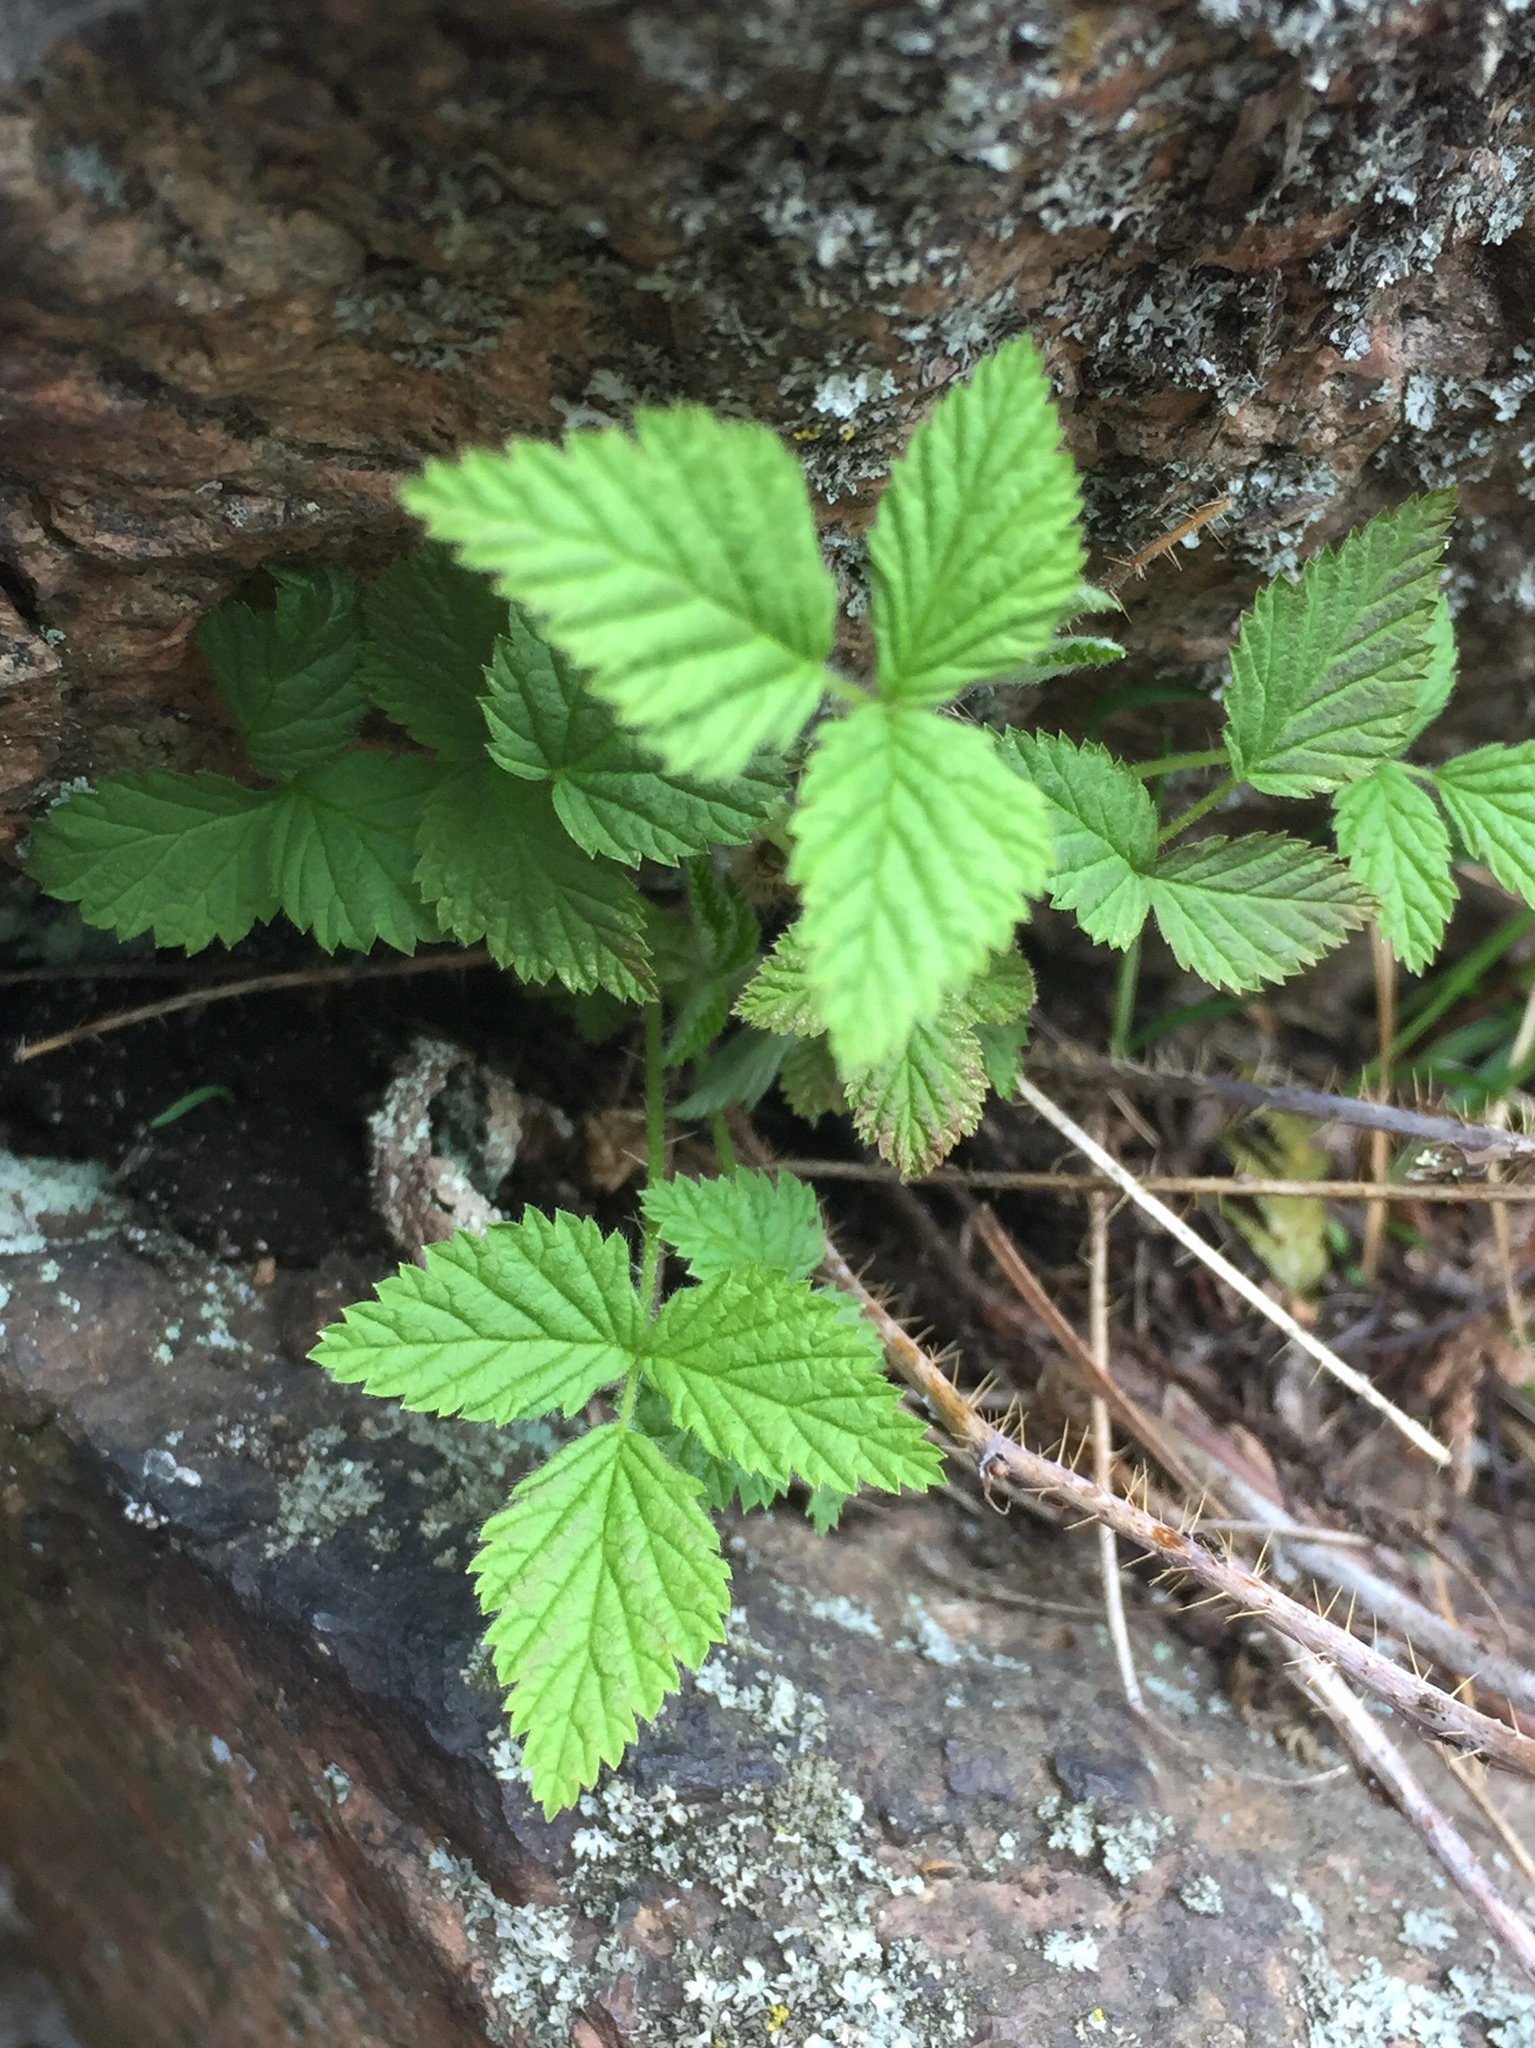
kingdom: Plantae
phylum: Tracheophyta
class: Magnoliopsida
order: Rosales
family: Rosaceae
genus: Rubus
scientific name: Rubus pubescens
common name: Dwarf raspberry
